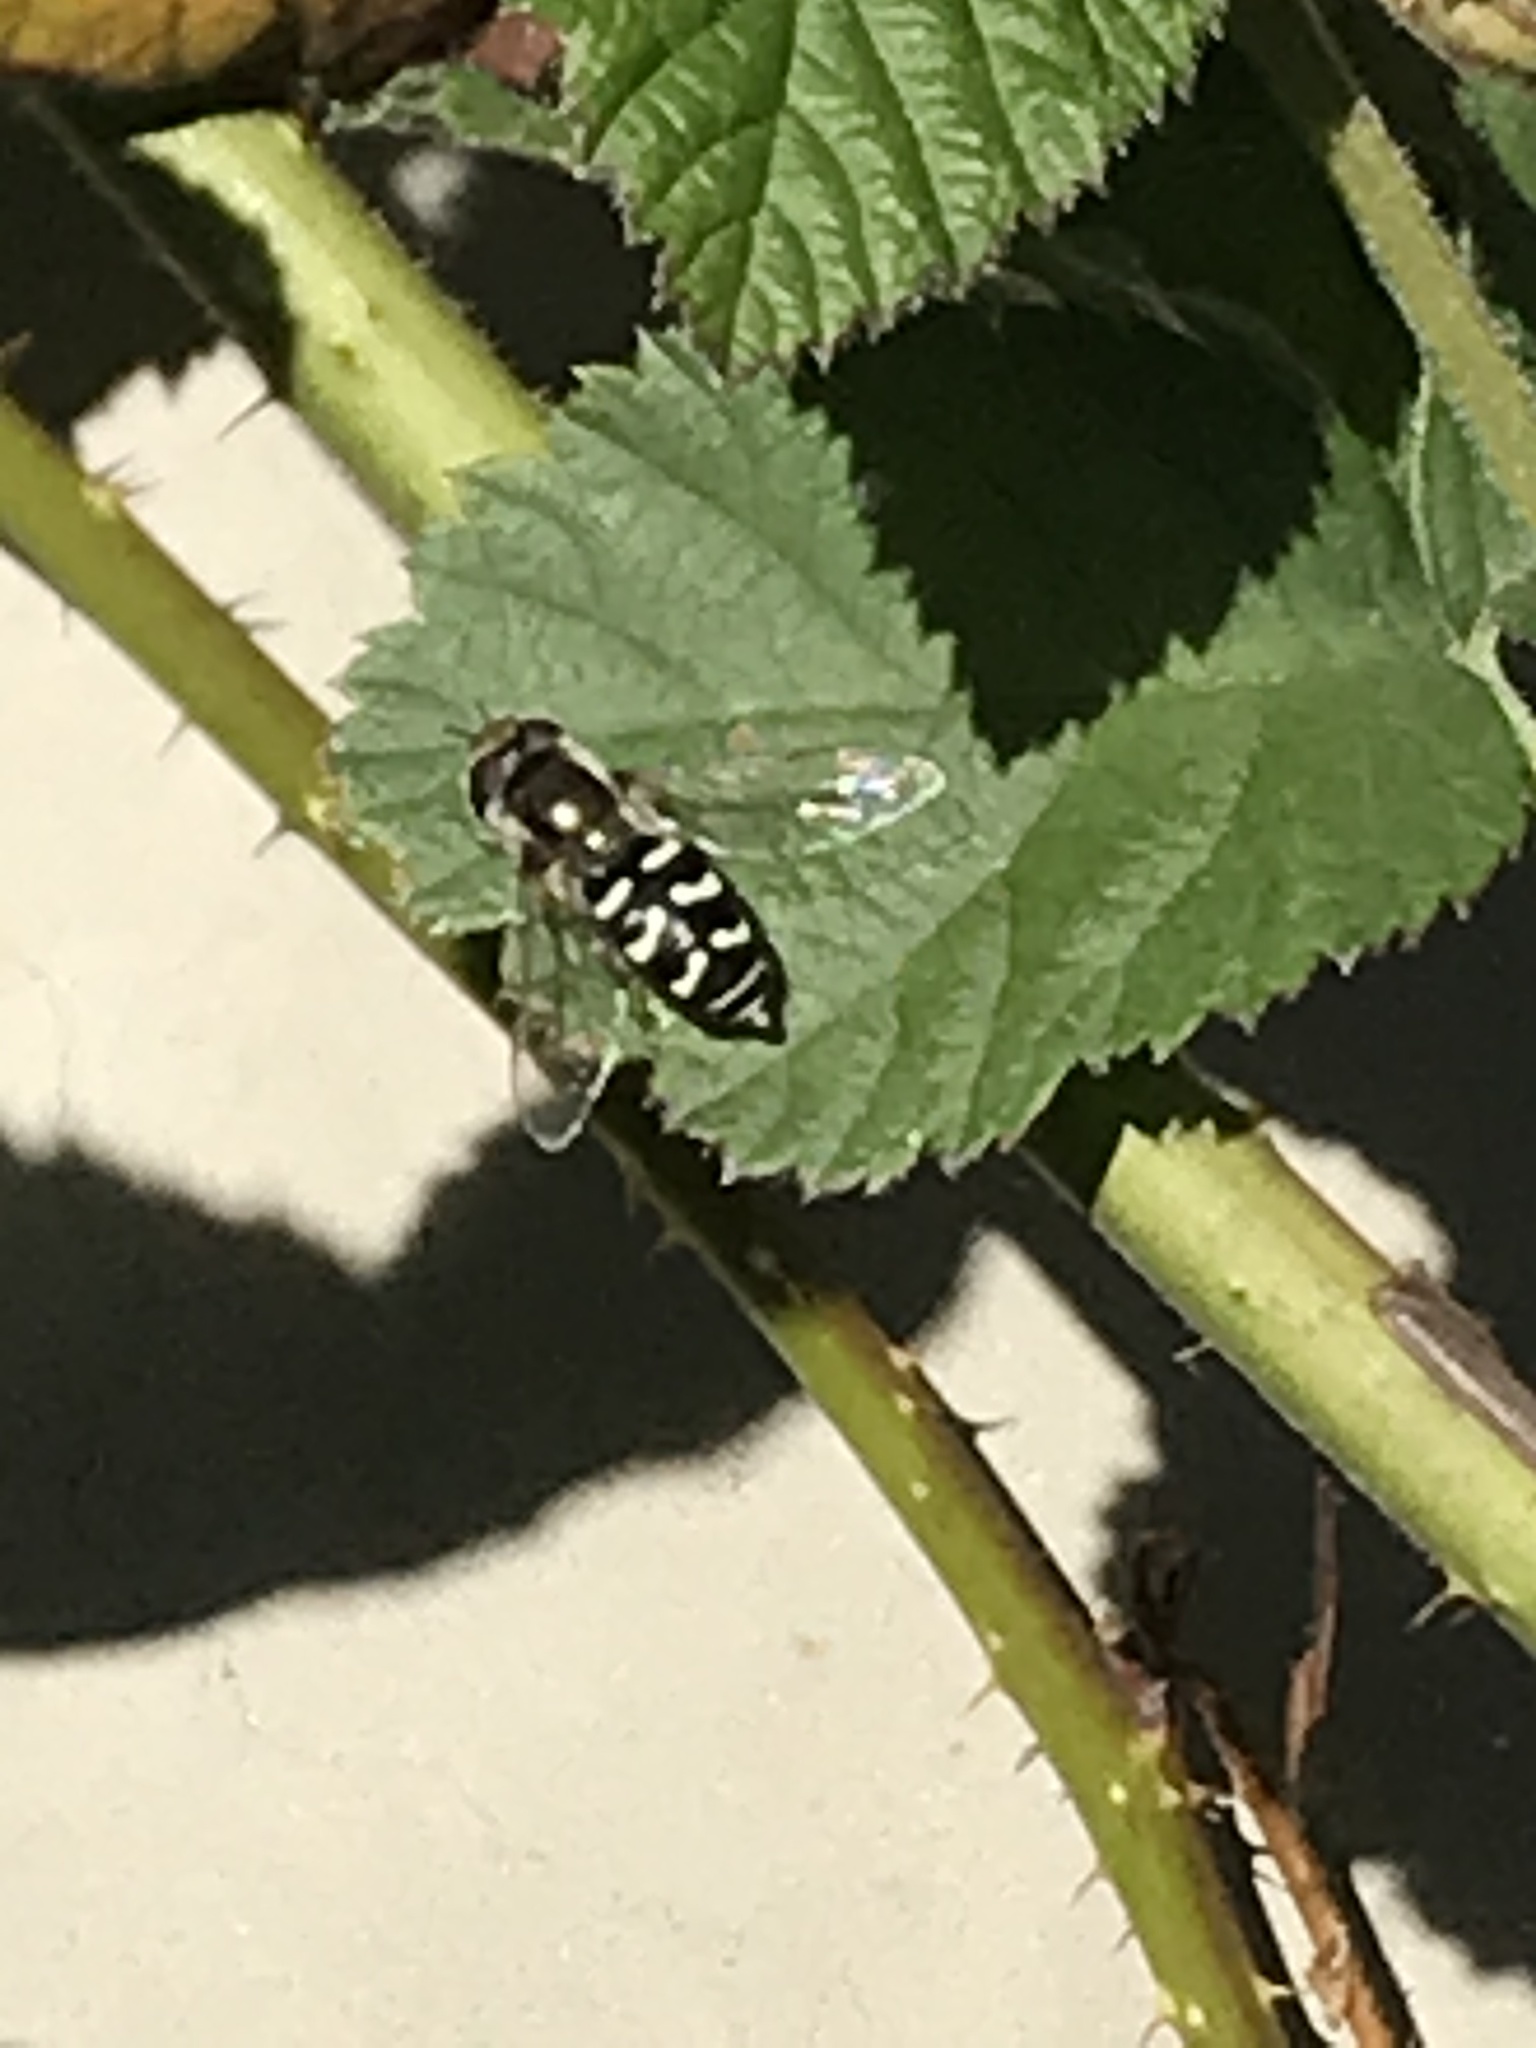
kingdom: Animalia
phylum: Arthropoda
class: Insecta
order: Diptera
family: Syrphidae
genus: Scaeva
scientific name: Scaeva affinis
